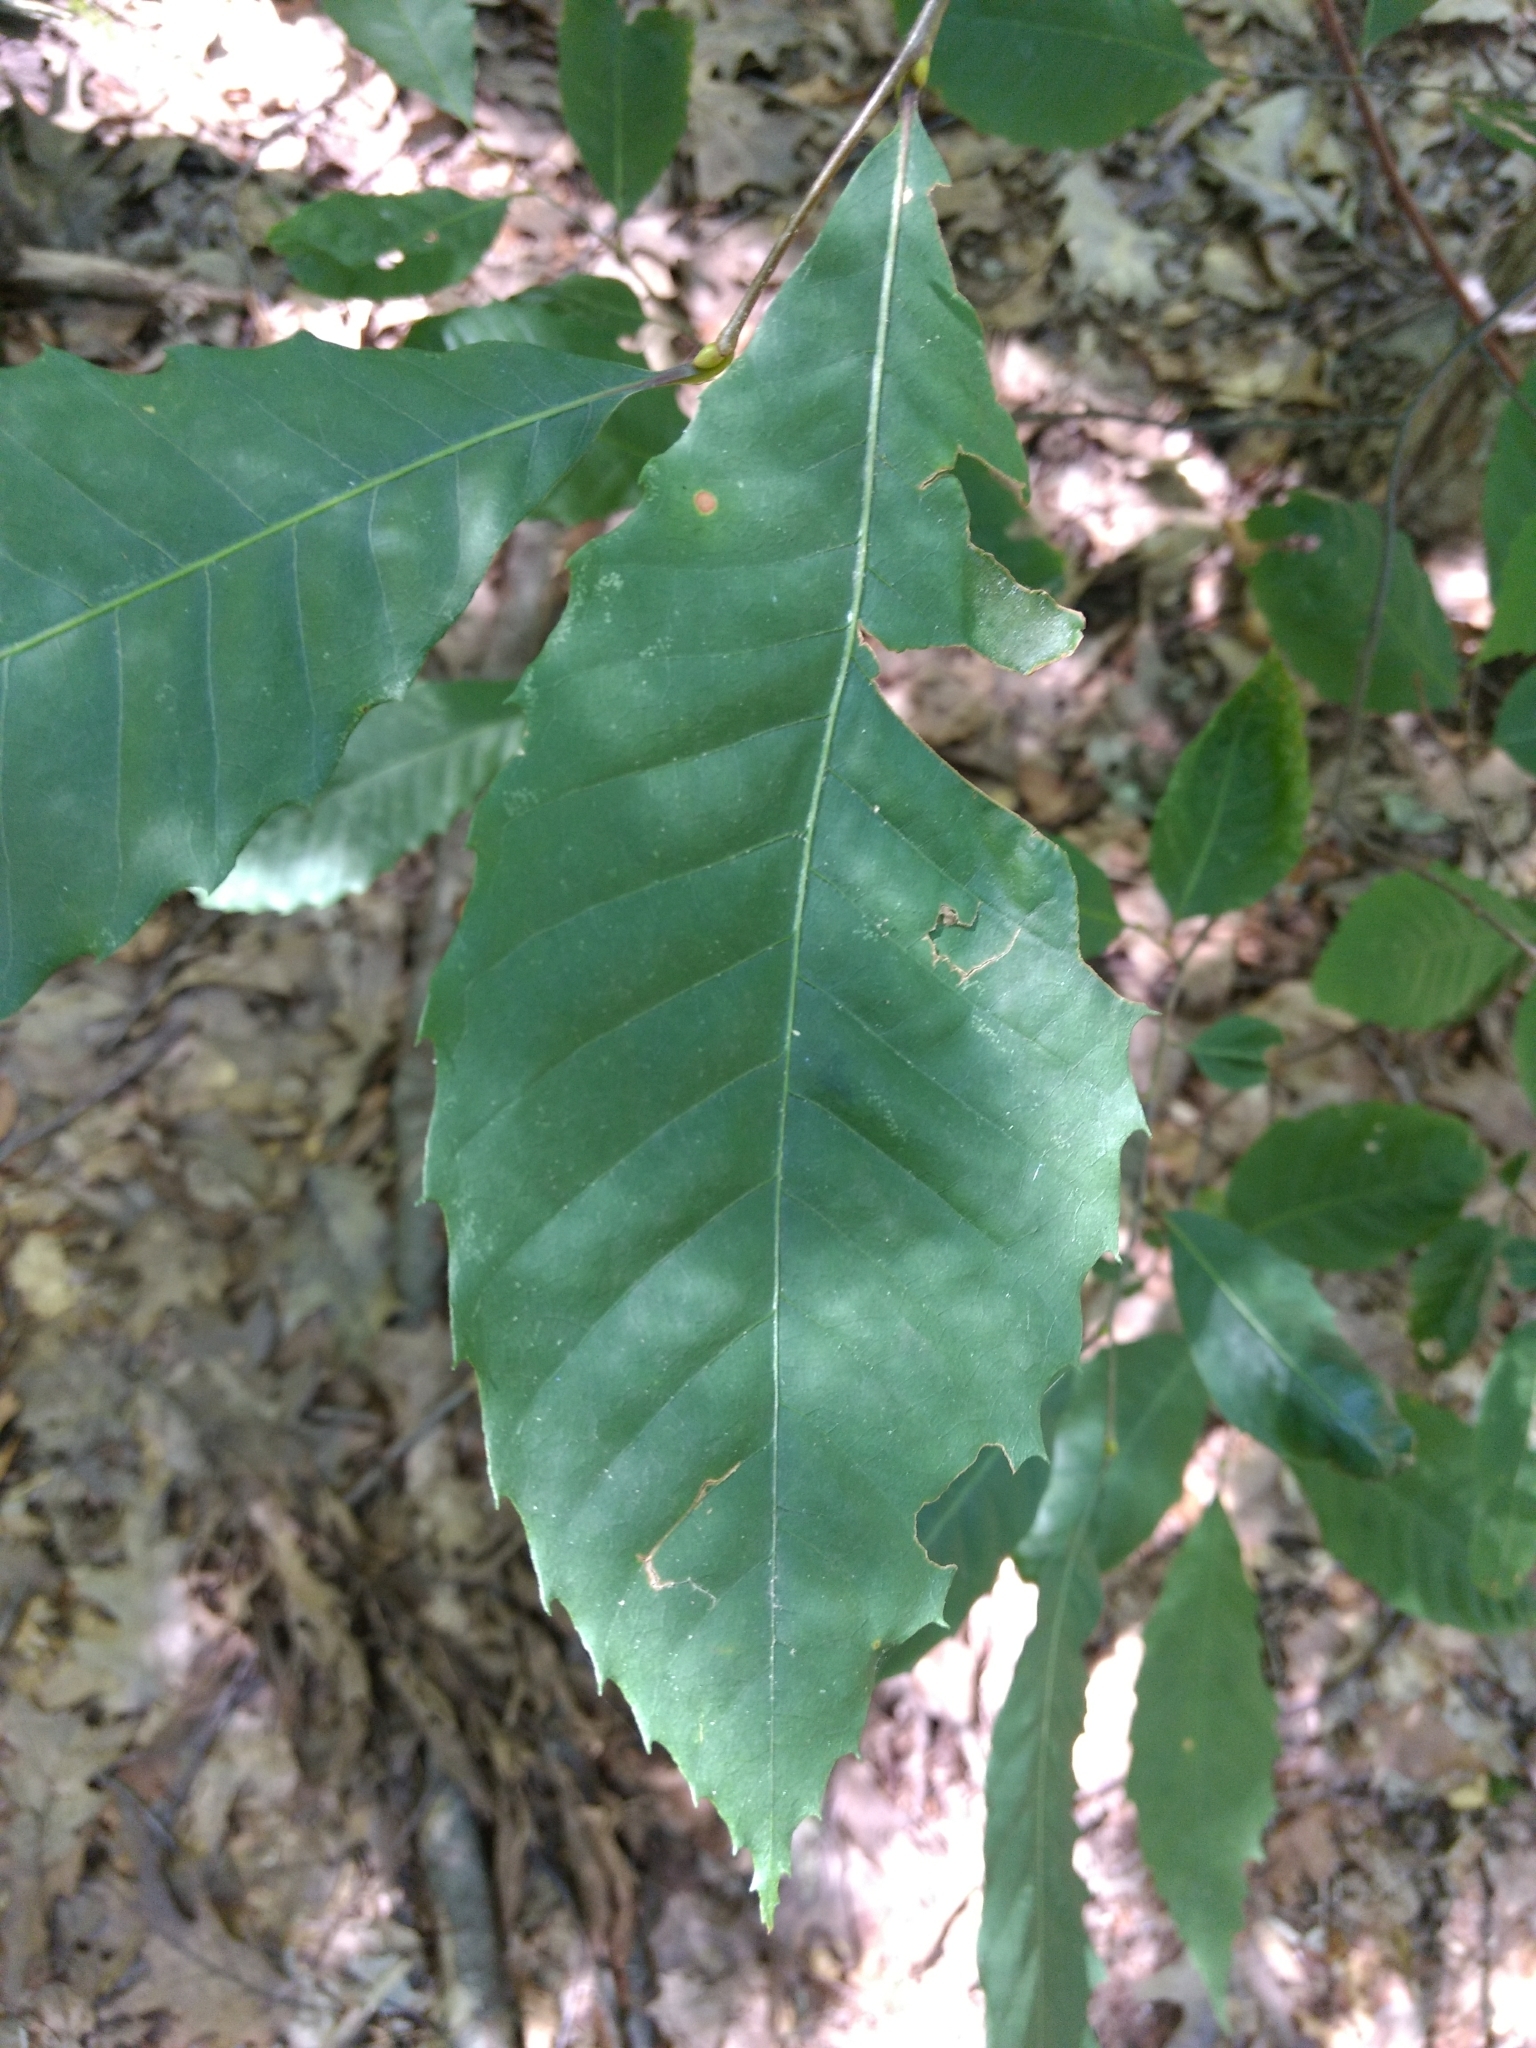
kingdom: Plantae
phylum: Tracheophyta
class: Magnoliopsida
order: Fagales
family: Fagaceae
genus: Castanea
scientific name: Castanea dentata
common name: American chestnut
